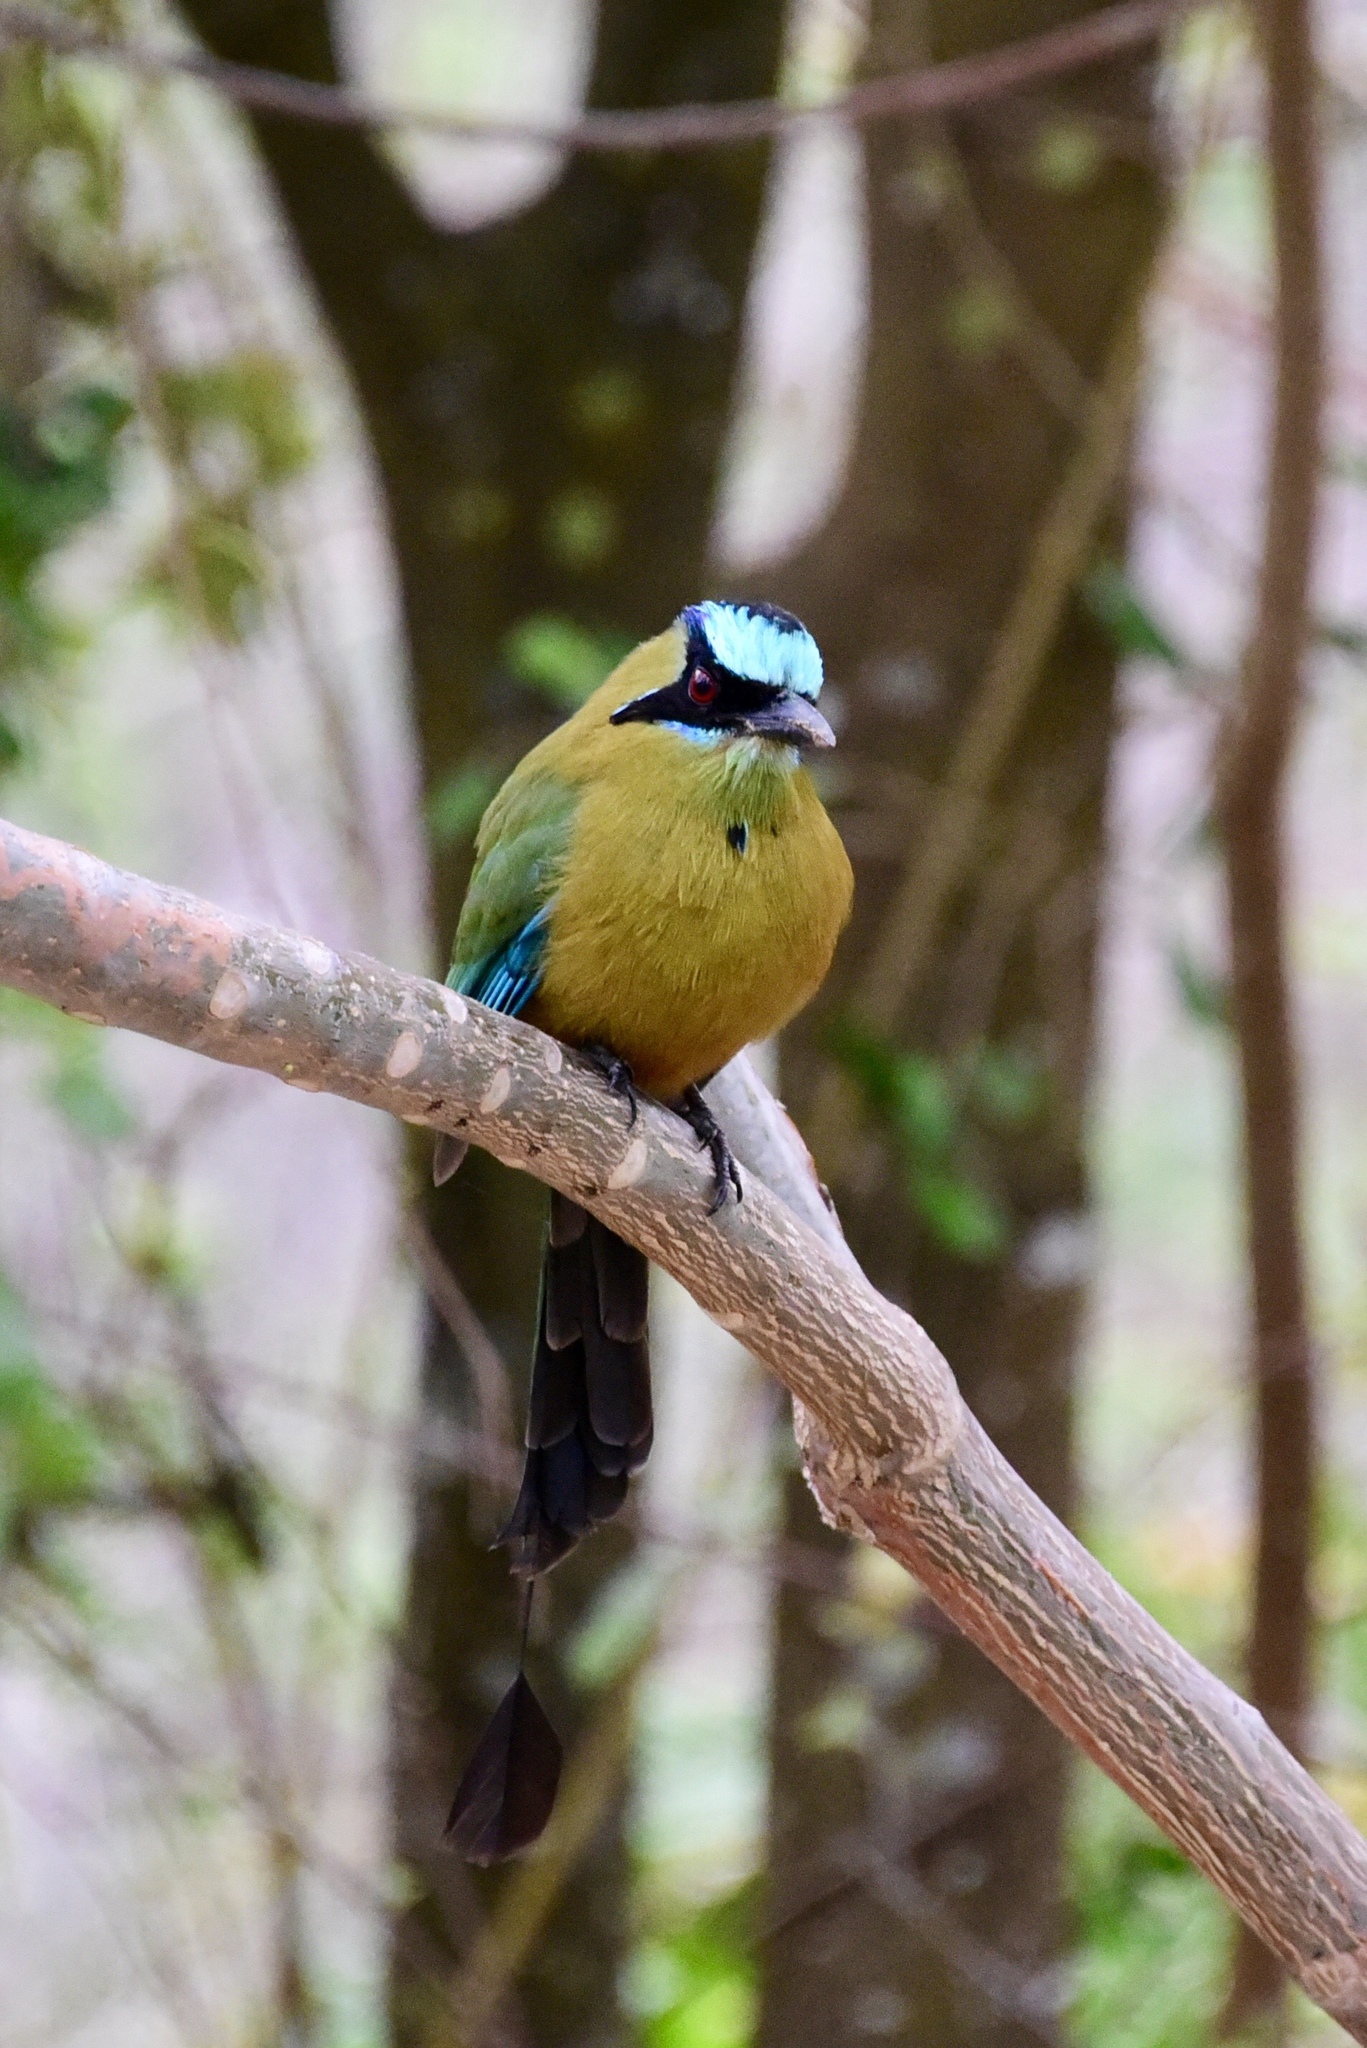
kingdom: Animalia
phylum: Chordata
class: Aves
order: Coraciiformes
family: Momotidae
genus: Momotus
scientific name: Momotus subrufescens
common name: Whooping motmot
